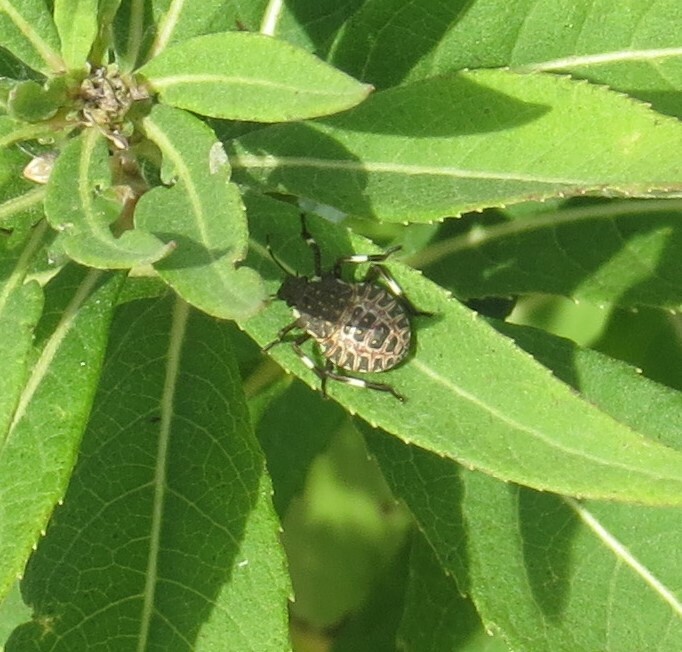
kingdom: Animalia
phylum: Arthropoda
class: Insecta
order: Hemiptera
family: Pentatomidae
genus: Halyomorpha
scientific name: Halyomorpha halys
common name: Brown marmorated stink bug
